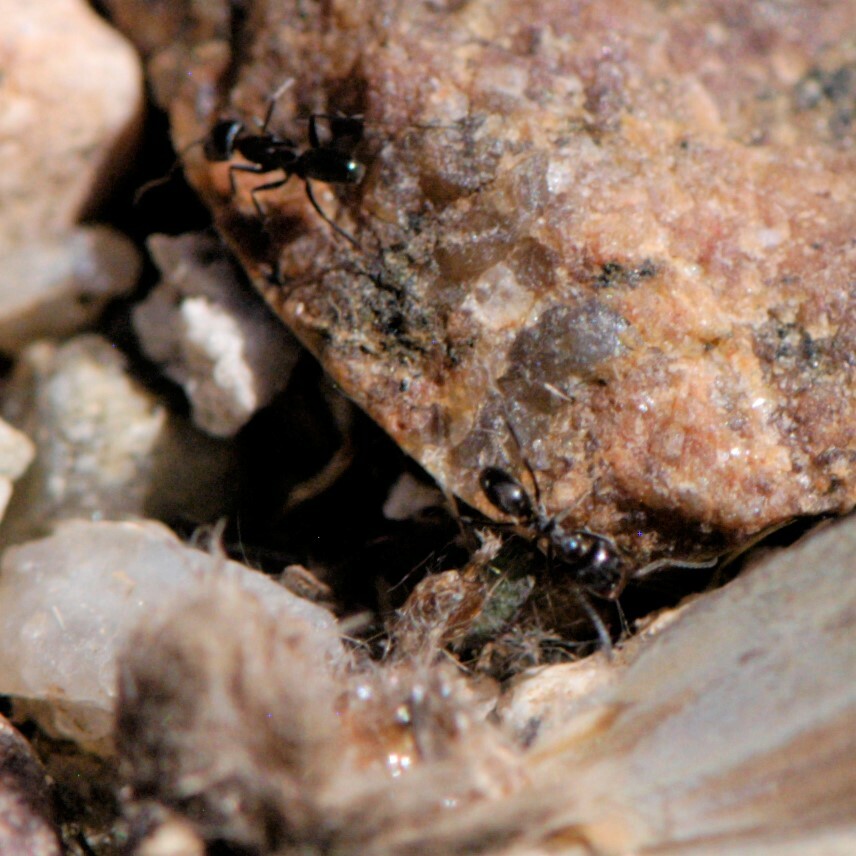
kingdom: Animalia
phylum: Arthropoda
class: Insecta
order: Hymenoptera
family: Formicidae
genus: Dorymyrmex
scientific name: Dorymyrmex
